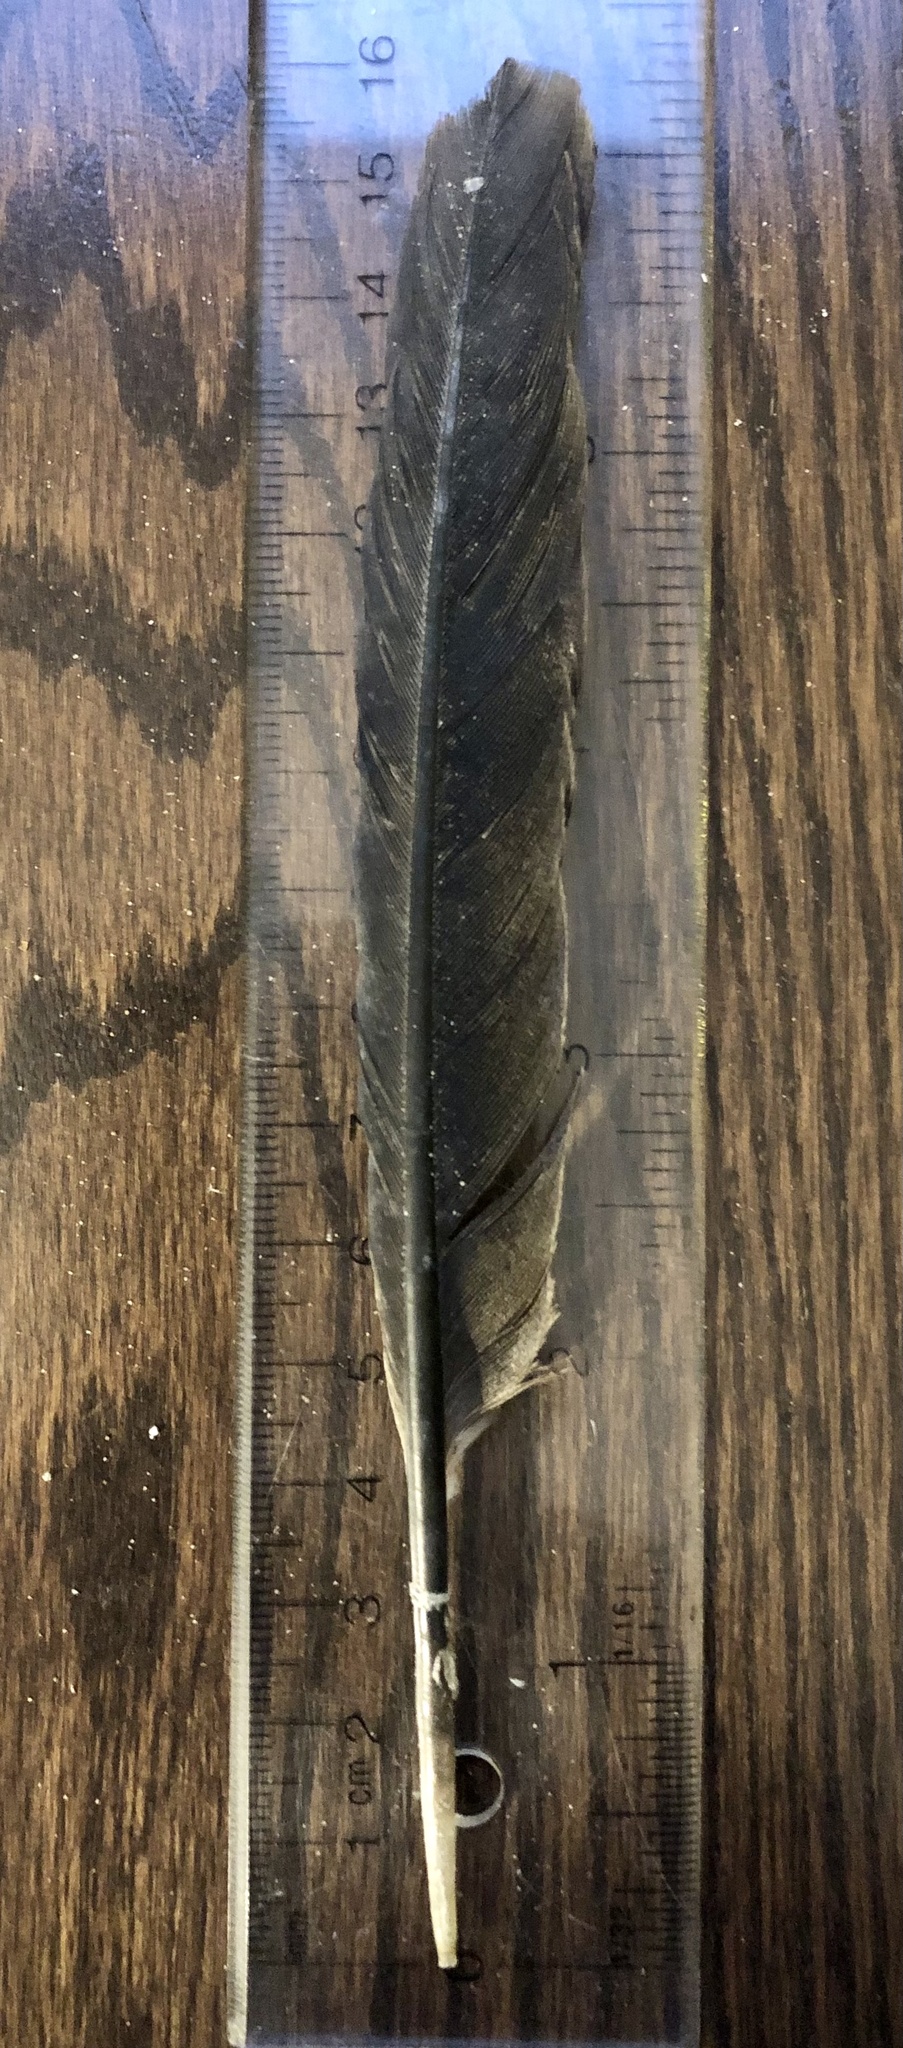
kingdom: Animalia
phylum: Chordata
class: Aves
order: Suliformes
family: Phalacrocoracidae
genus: Phalacrocorax
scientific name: Phalacrocorax auritus
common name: Double-crested cormorant
